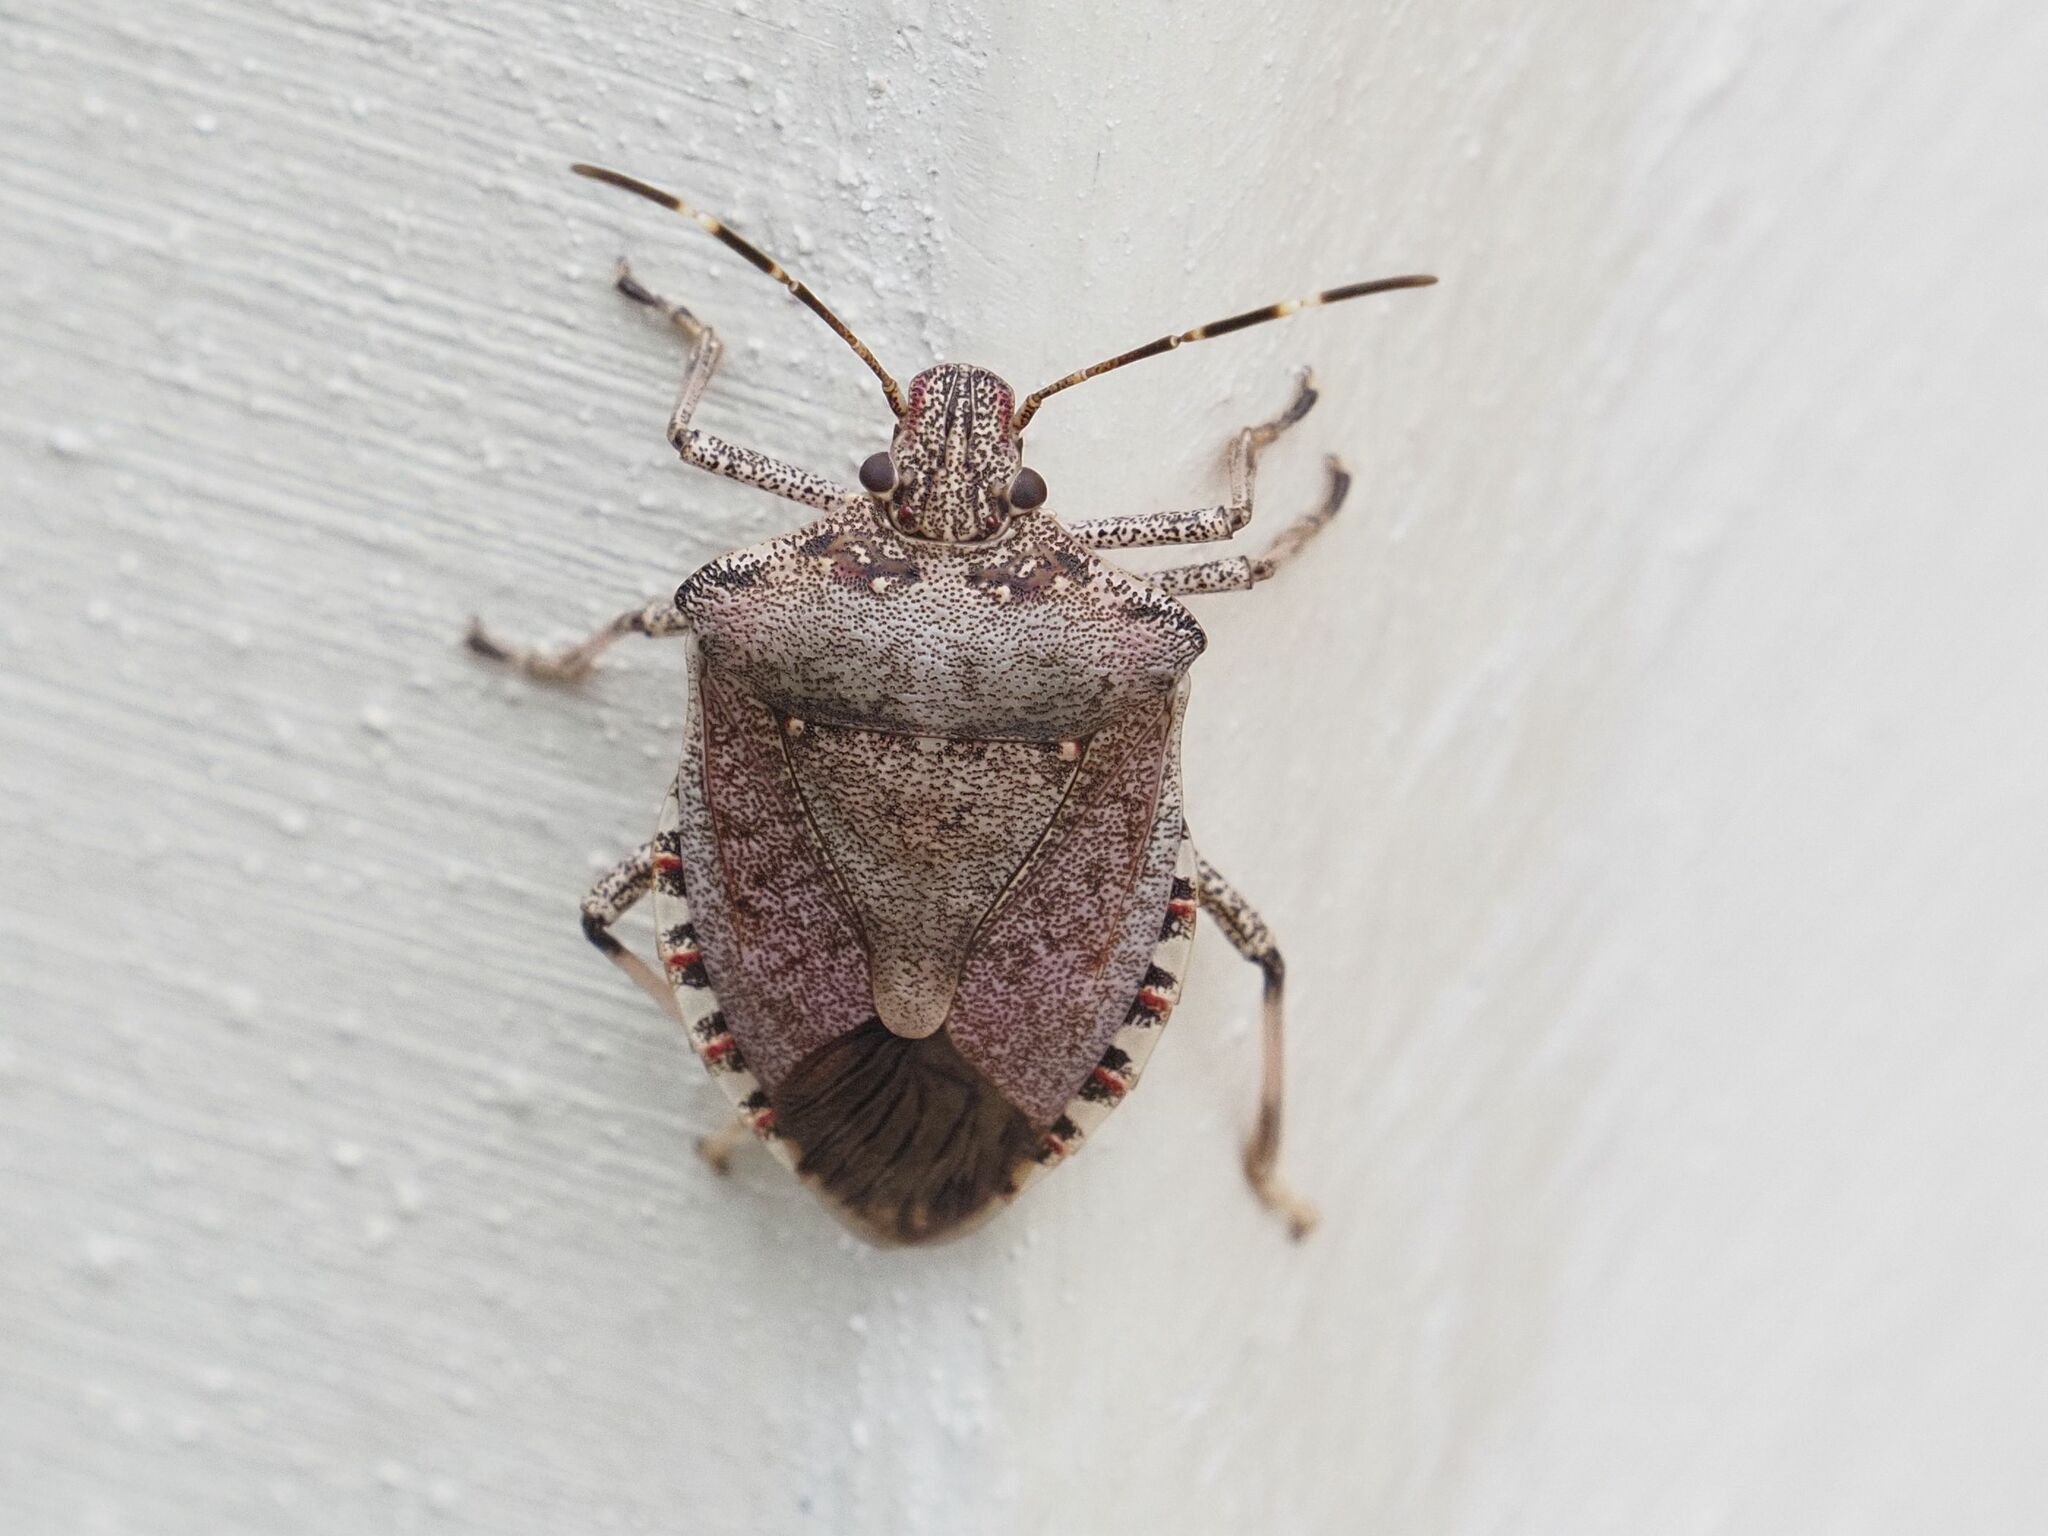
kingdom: Animalia
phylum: Arthropoda
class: Insecta
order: Hemiptera
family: Pentatomidae
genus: Halyomorpha
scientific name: Halyomorpha halys
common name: Brown marmorated stink bug
